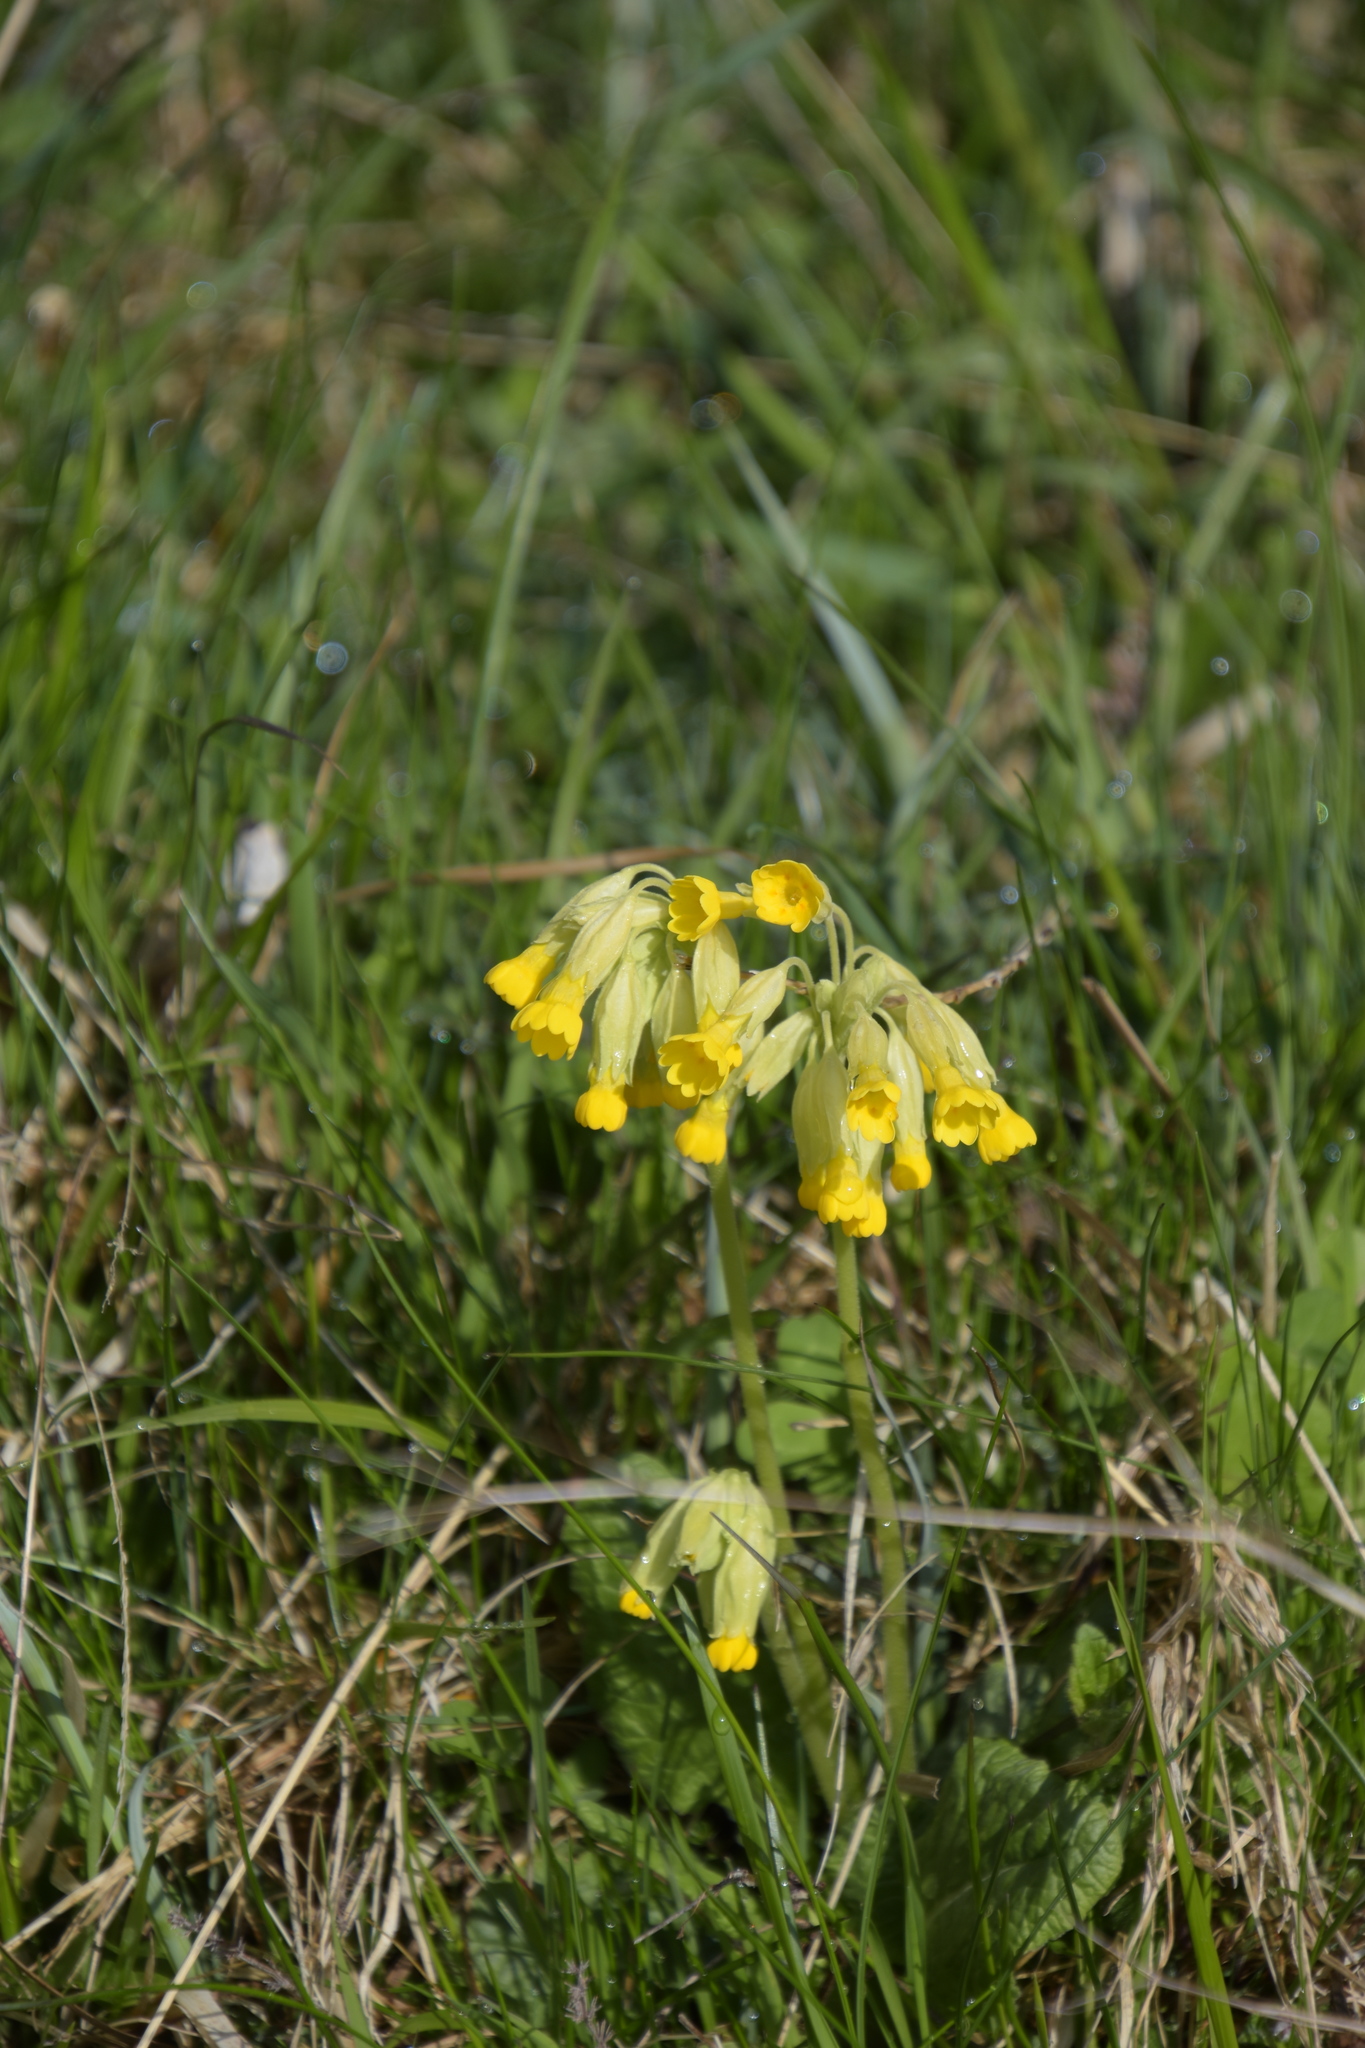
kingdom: Plantae
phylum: Tracheophyta
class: Magnoliopsida
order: Ericales
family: Primulaceae
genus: Primula
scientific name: Primula veris
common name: Cowslip
